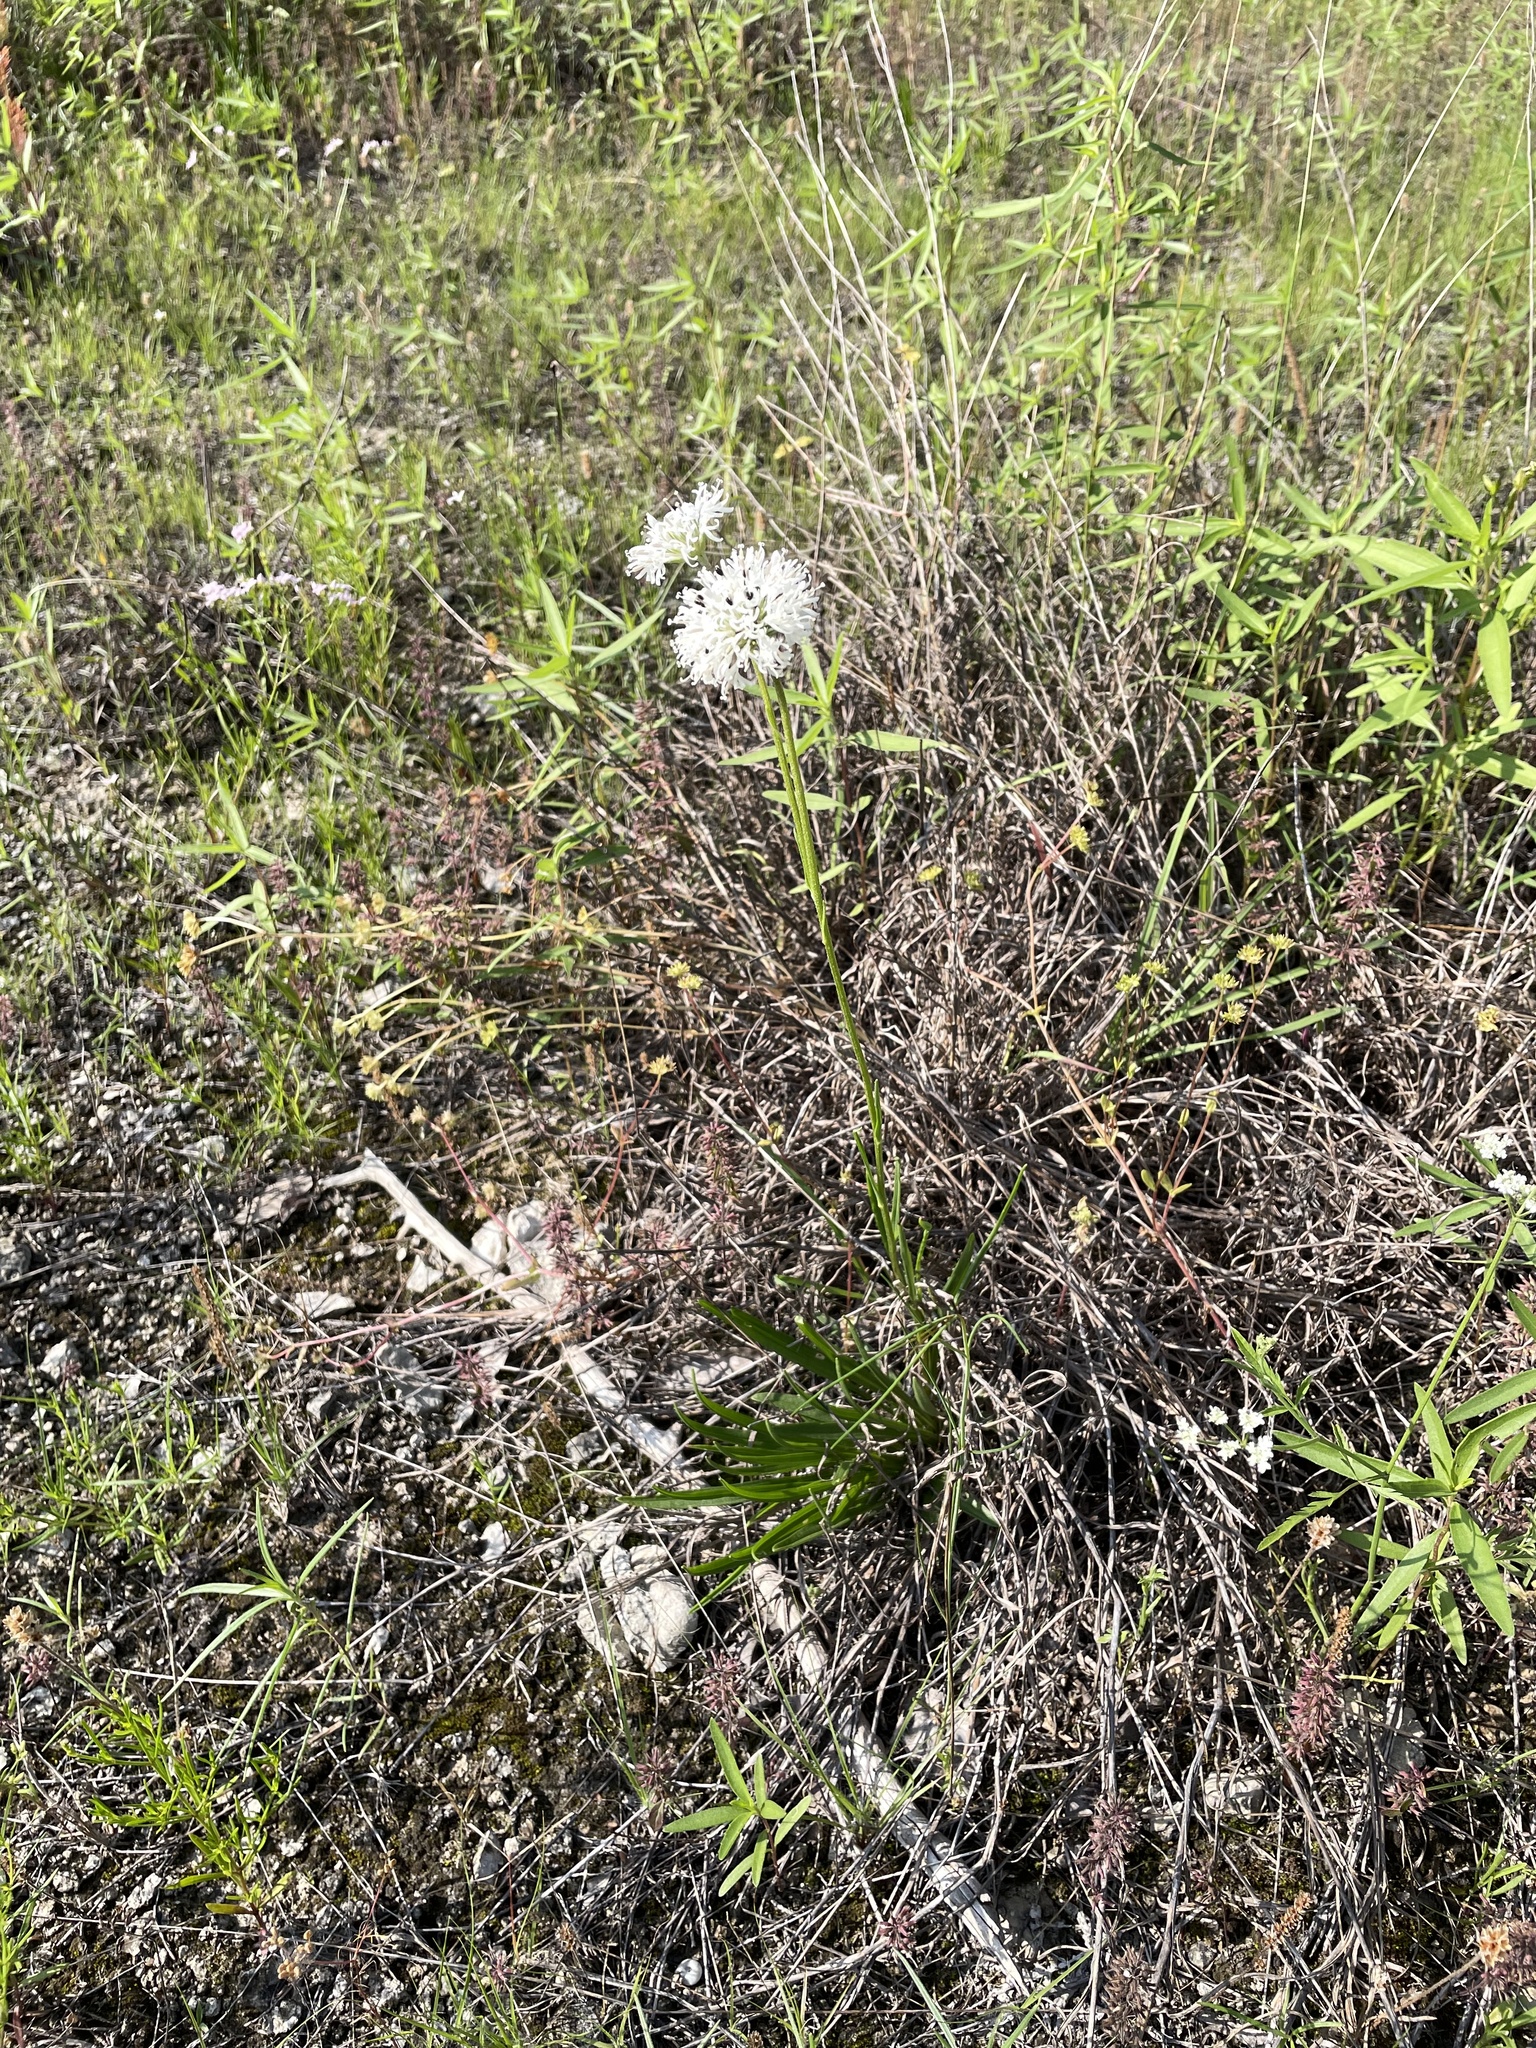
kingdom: Plantae
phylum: Tracheophyta
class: Magnoliopsida
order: Asterales
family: Asteraceae
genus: Marshallia
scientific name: Marshallia caespitosa
